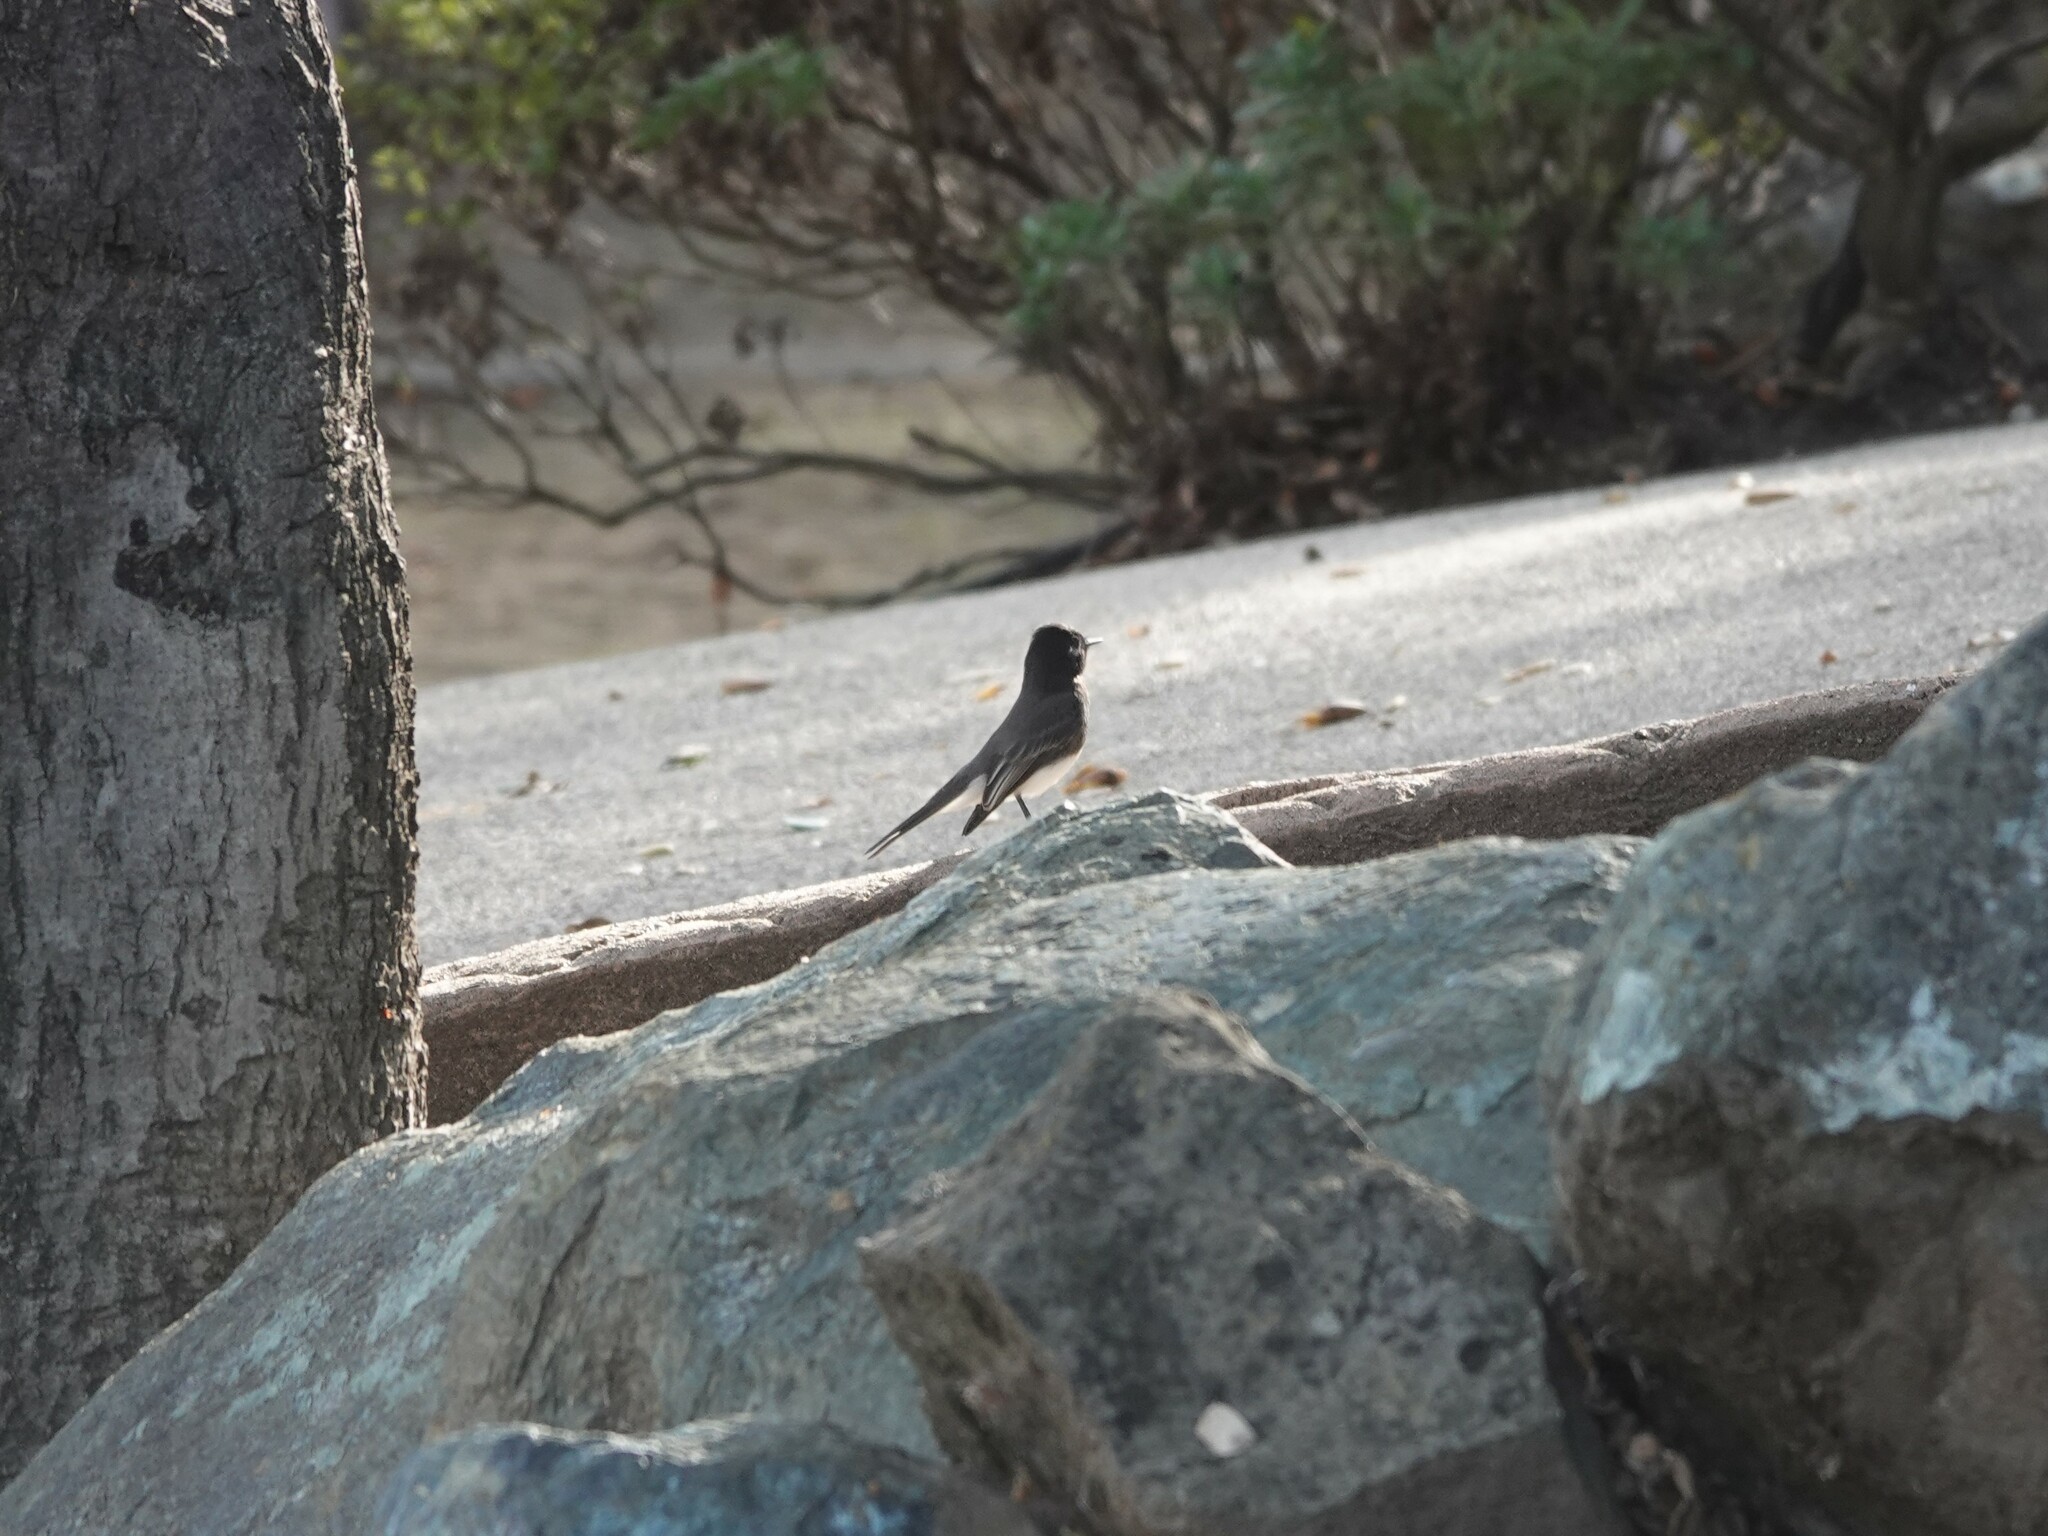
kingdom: Animalia
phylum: Chordata
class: Aves
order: Passeriformes
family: Tyrannidae
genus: Sayornis
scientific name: Sayornis nigricans
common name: Black phoebe
